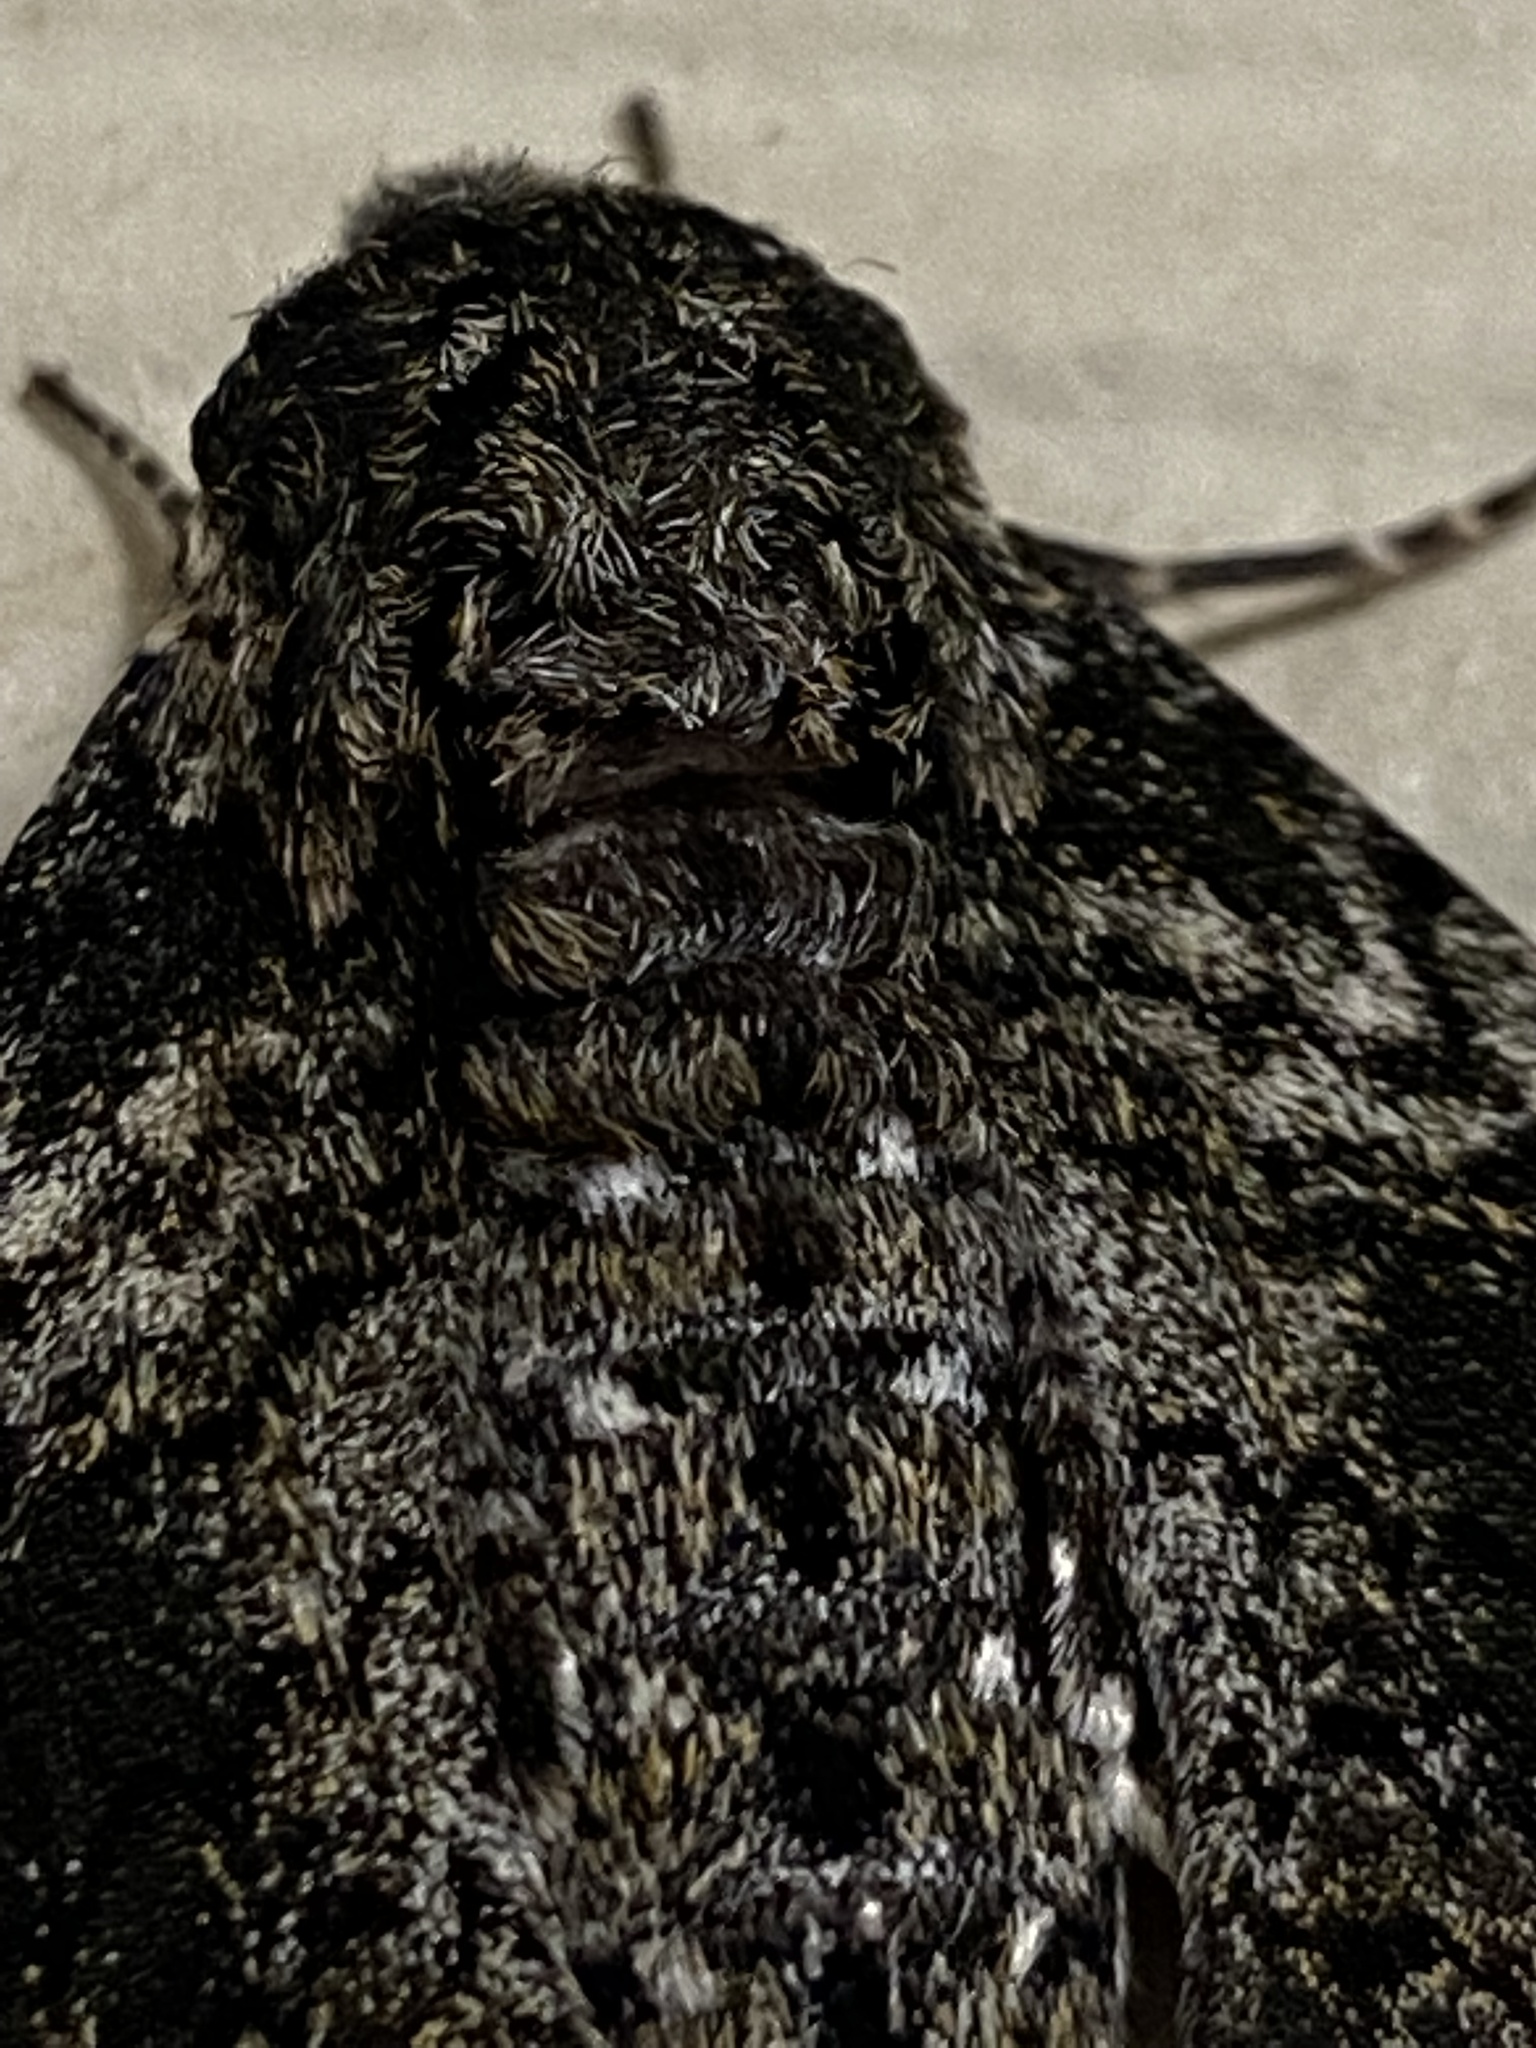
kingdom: Animalia
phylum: Arthropoda
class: Insecta
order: Lepidoptera
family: Sphingidae
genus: Dolba
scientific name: Dolba hyloeus
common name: Pawpaw sphinx
